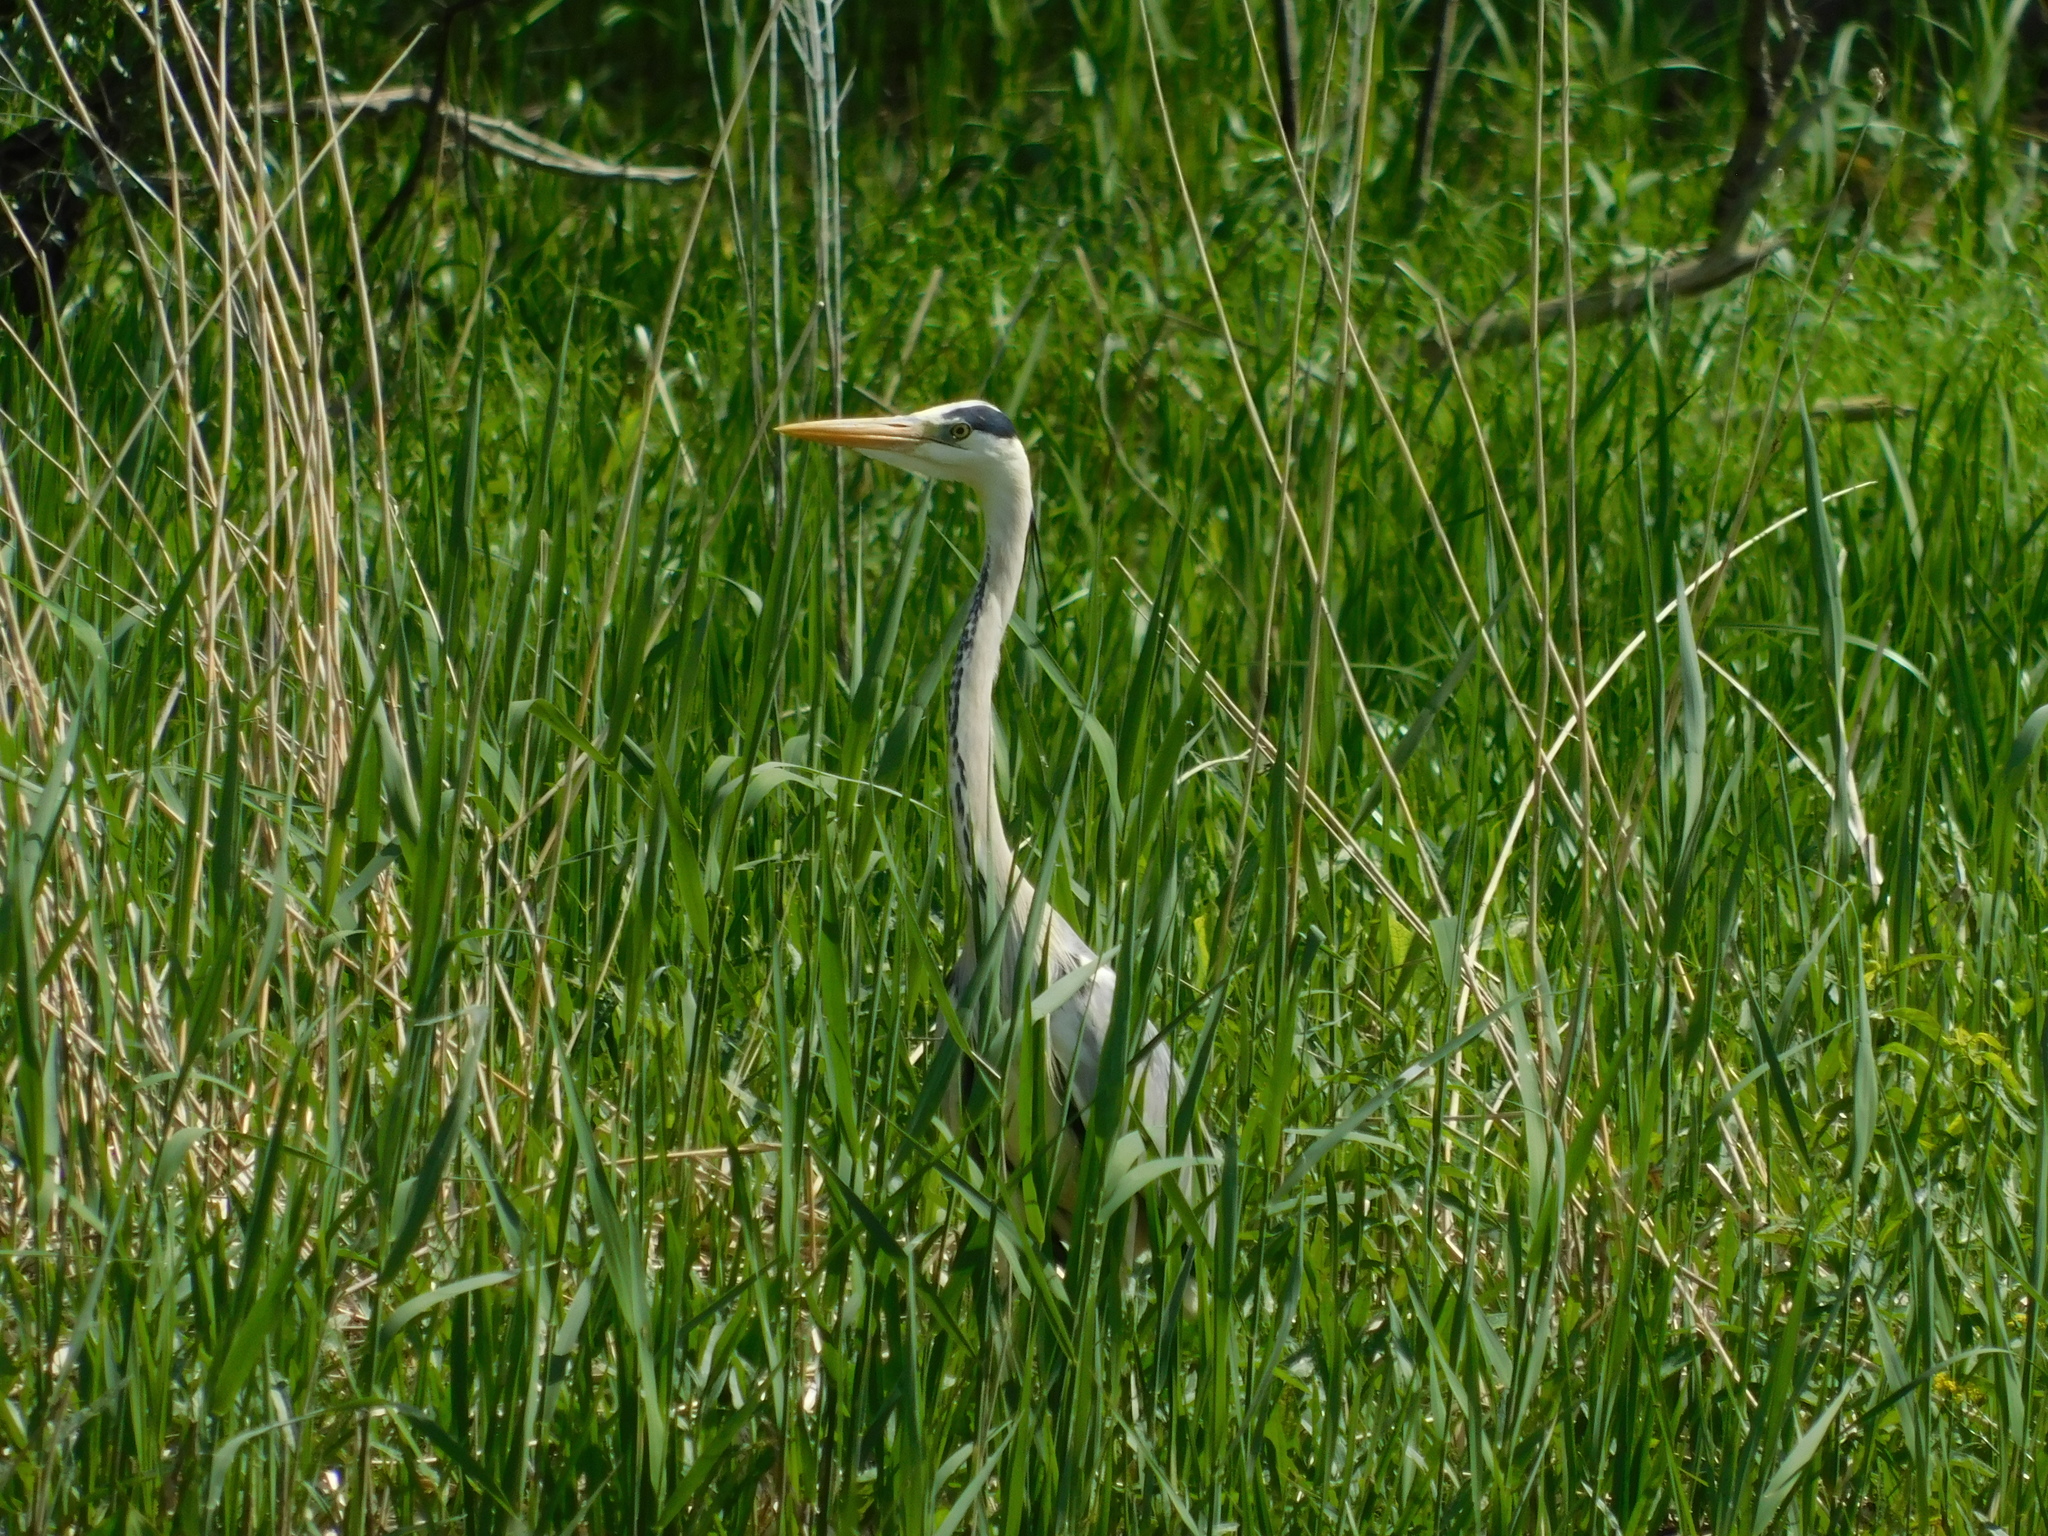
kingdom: Animalia
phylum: Chordata
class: Aves
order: Pelecaniformes
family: Ardeidae
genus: Ardea
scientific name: Ardea cinerea
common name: Grey heron
